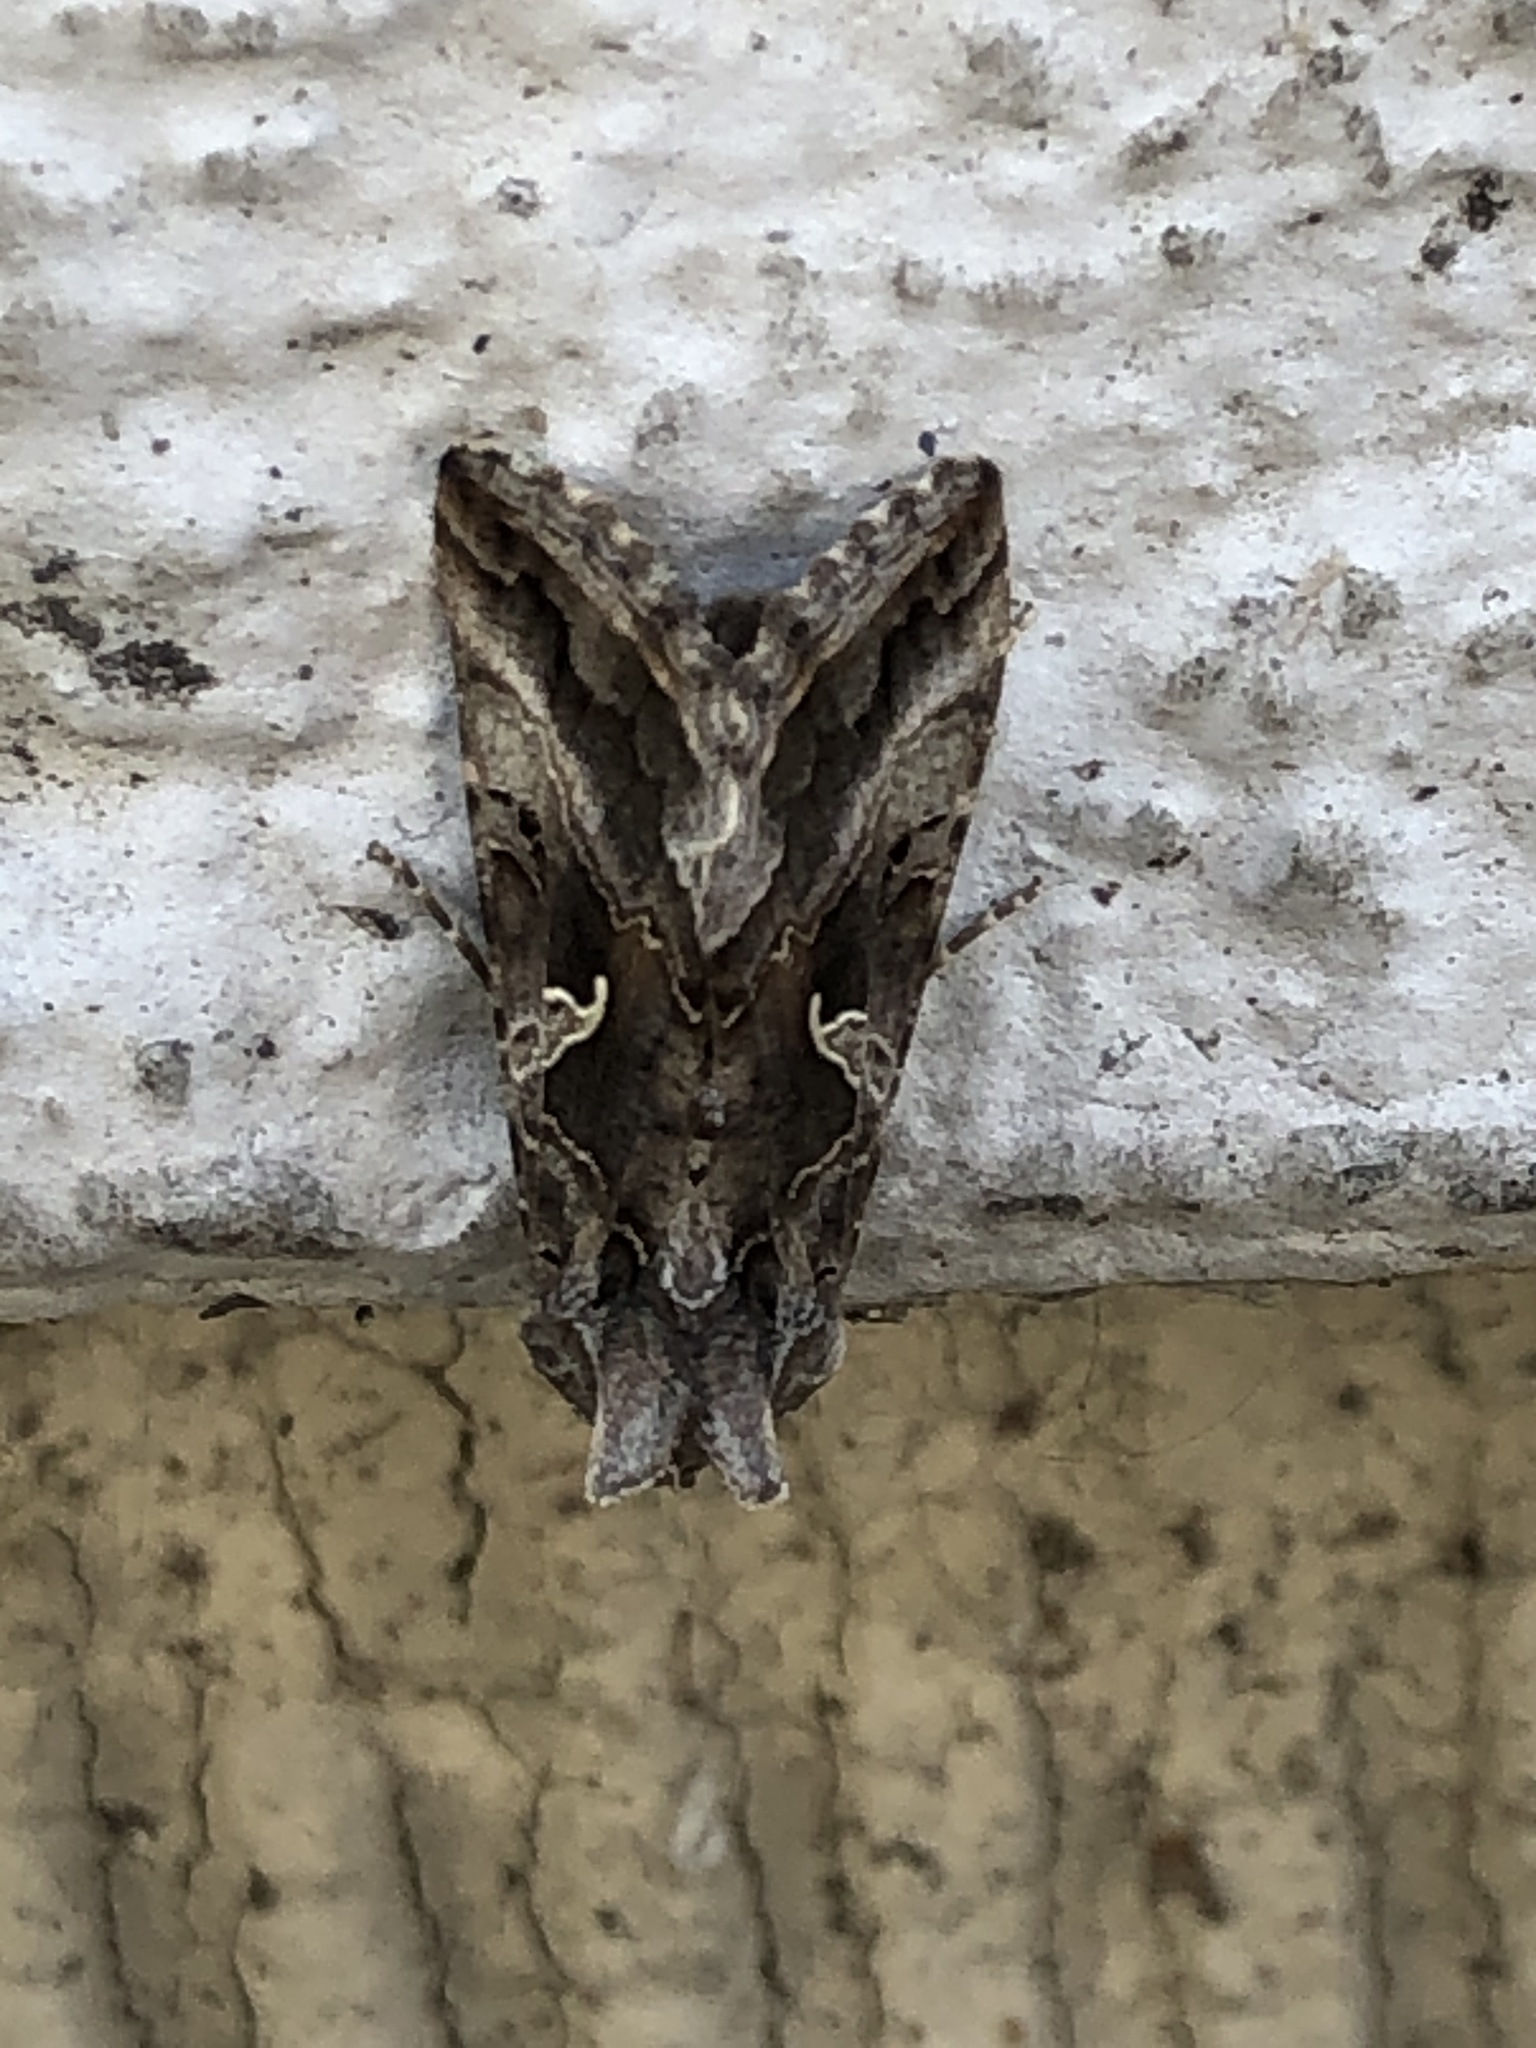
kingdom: Animalia
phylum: Arthropoda
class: Insecta
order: Lepidoptera
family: Noctuidae
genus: Autographa
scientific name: Autographa gamma
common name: Silver y
